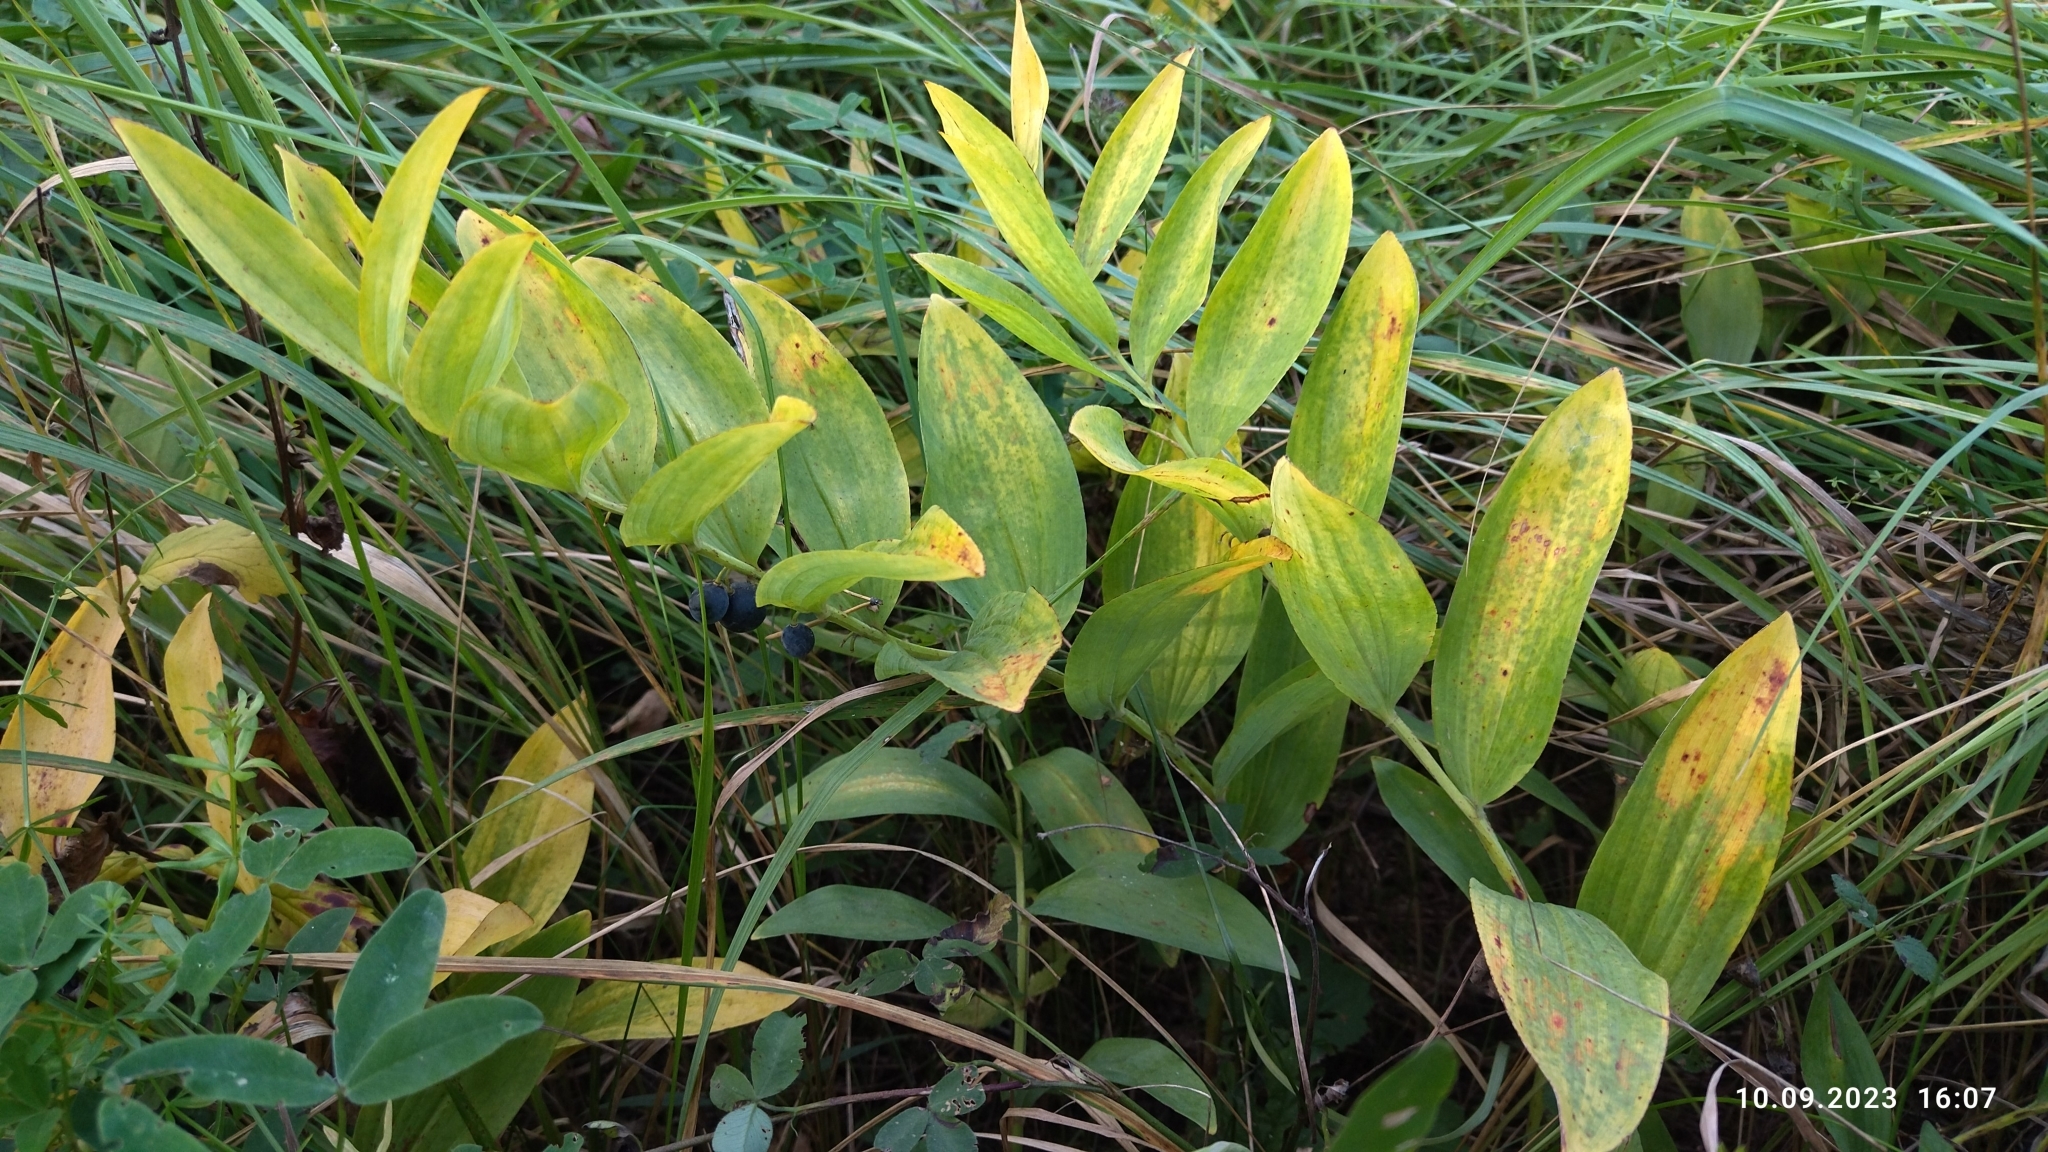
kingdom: Plantae
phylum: Tracheophyta
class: Liliopsida
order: Asparagales
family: Asparagaceae
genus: Polygonatum
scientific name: Polygonatum odoratum
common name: Angular solomon's-seal
